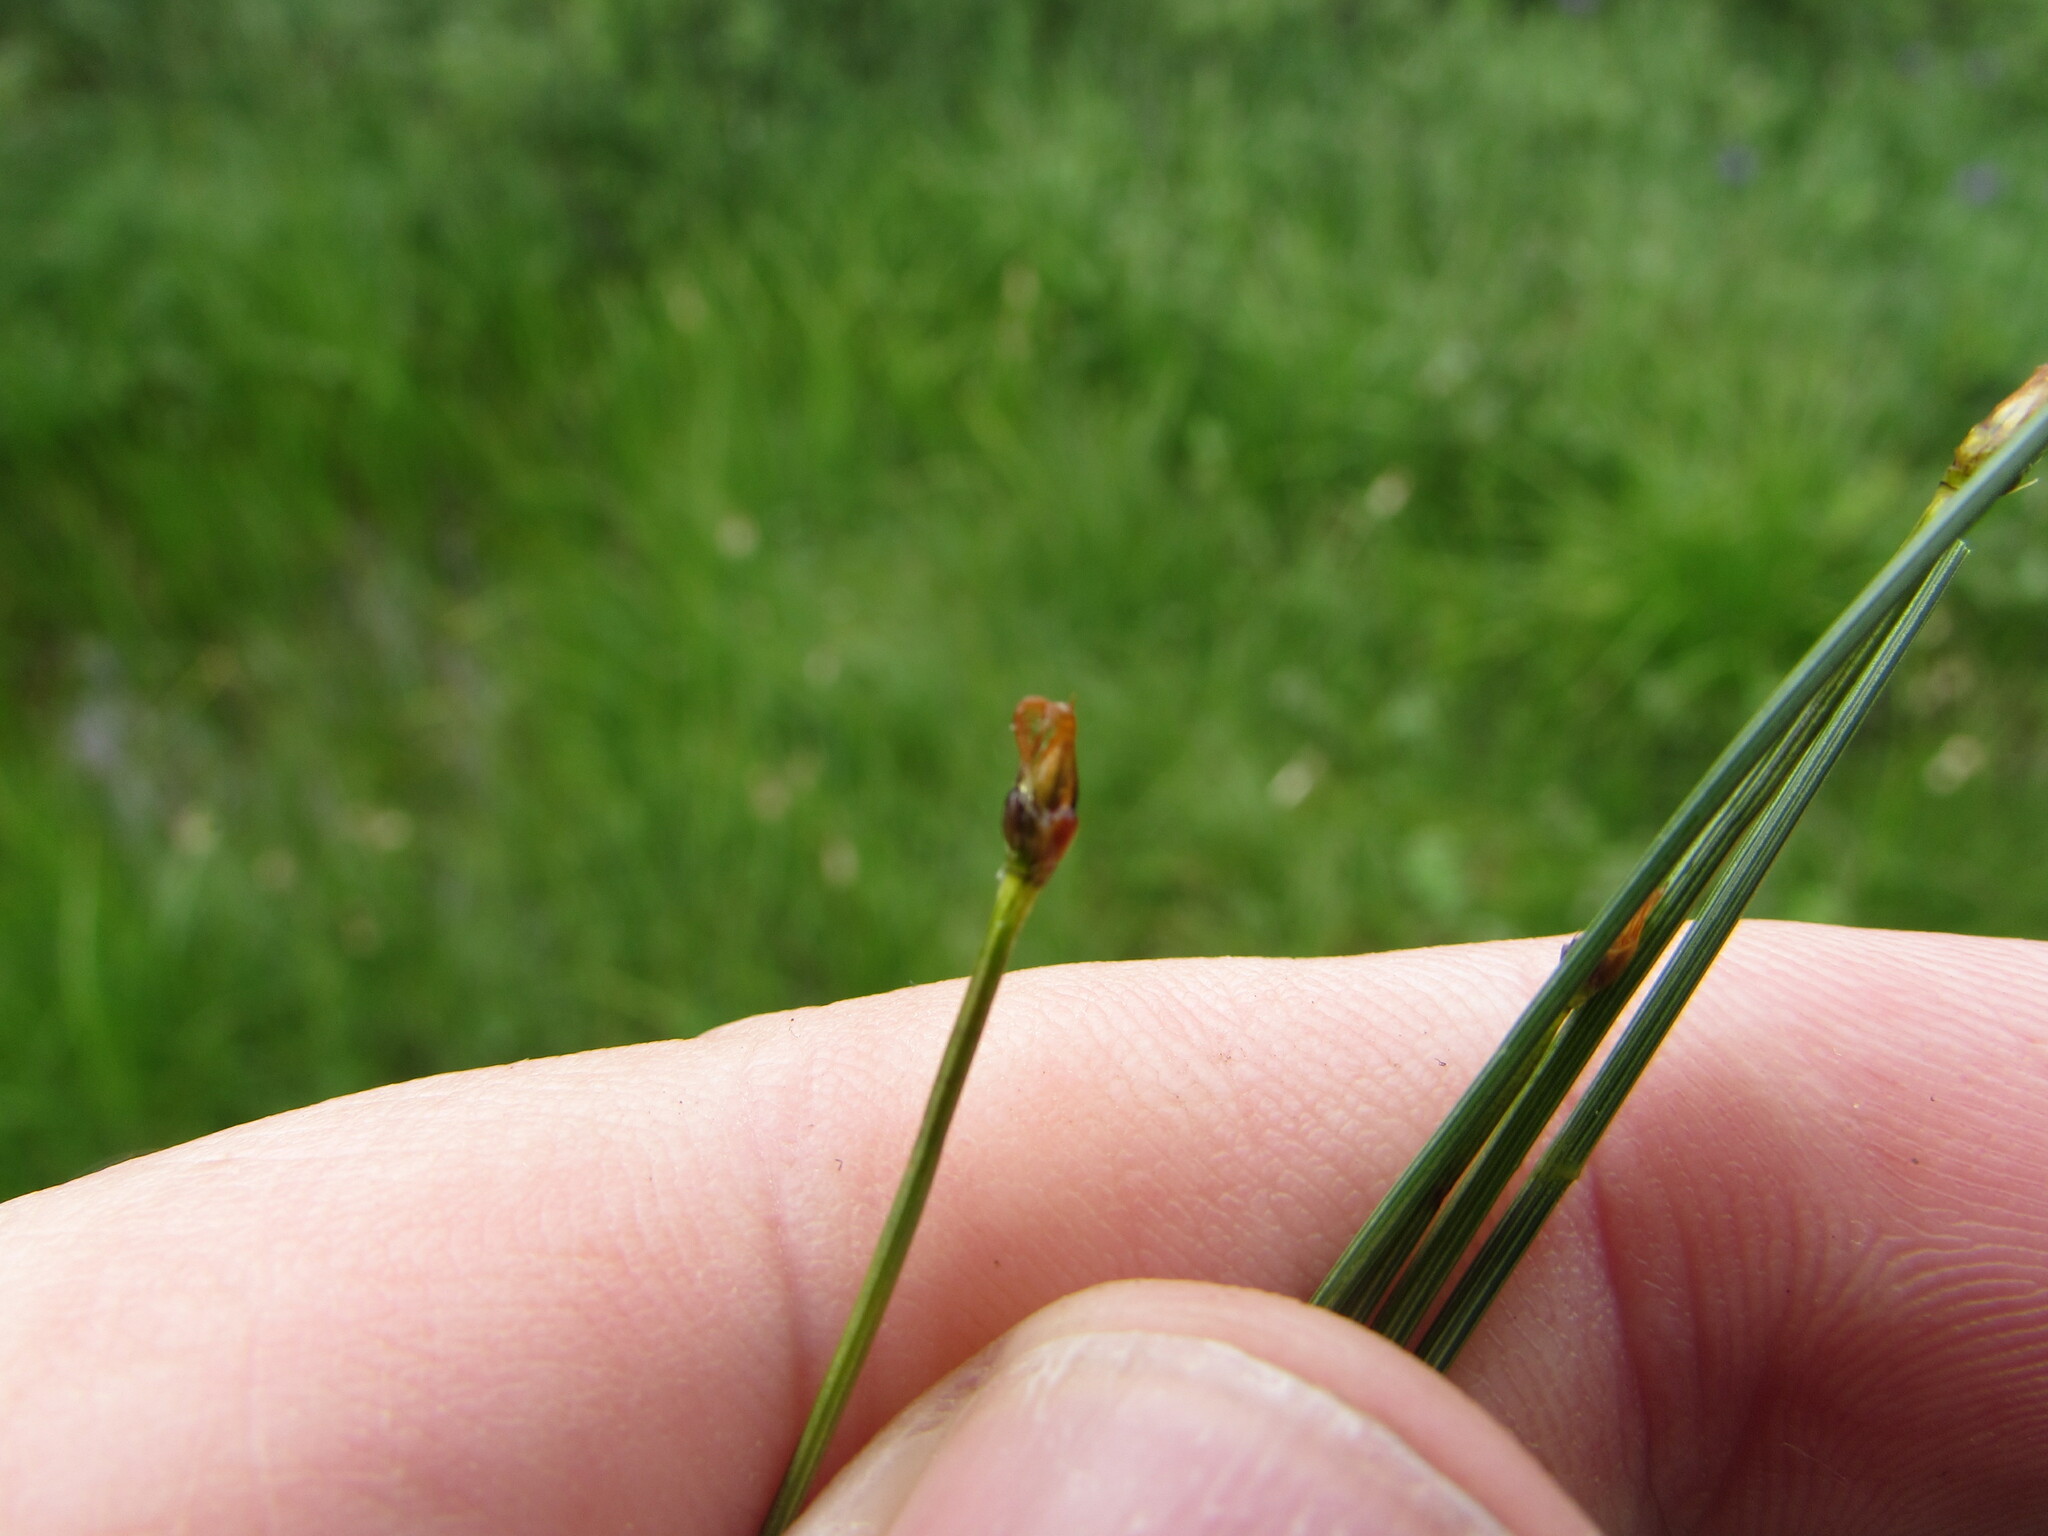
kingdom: Plantae
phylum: Tracheophyta
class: Liliopsida
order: Poales
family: Cyperaceae
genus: Trichophorum
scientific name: Trichophorum cespitosum
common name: Cespitose bulrush
